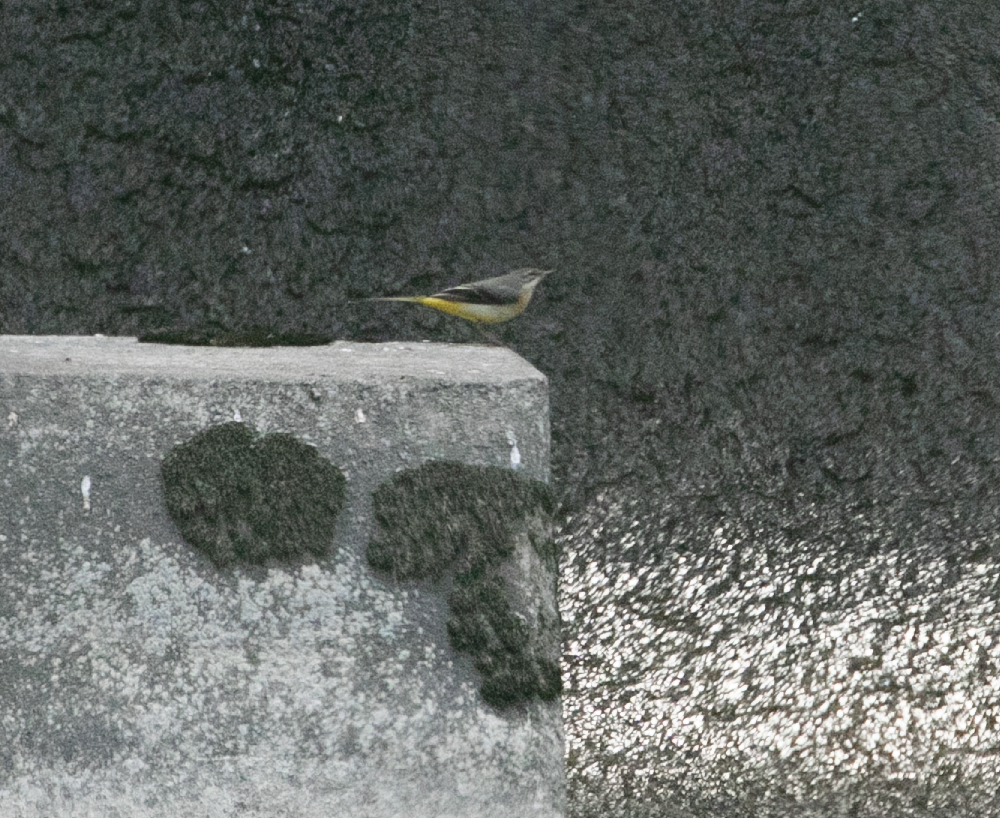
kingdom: Animalia
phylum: Chordata
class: Aves
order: Passeriformes
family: Motacillidae
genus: Motacilla
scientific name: Motacilla cinerea
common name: Grey wagtail
